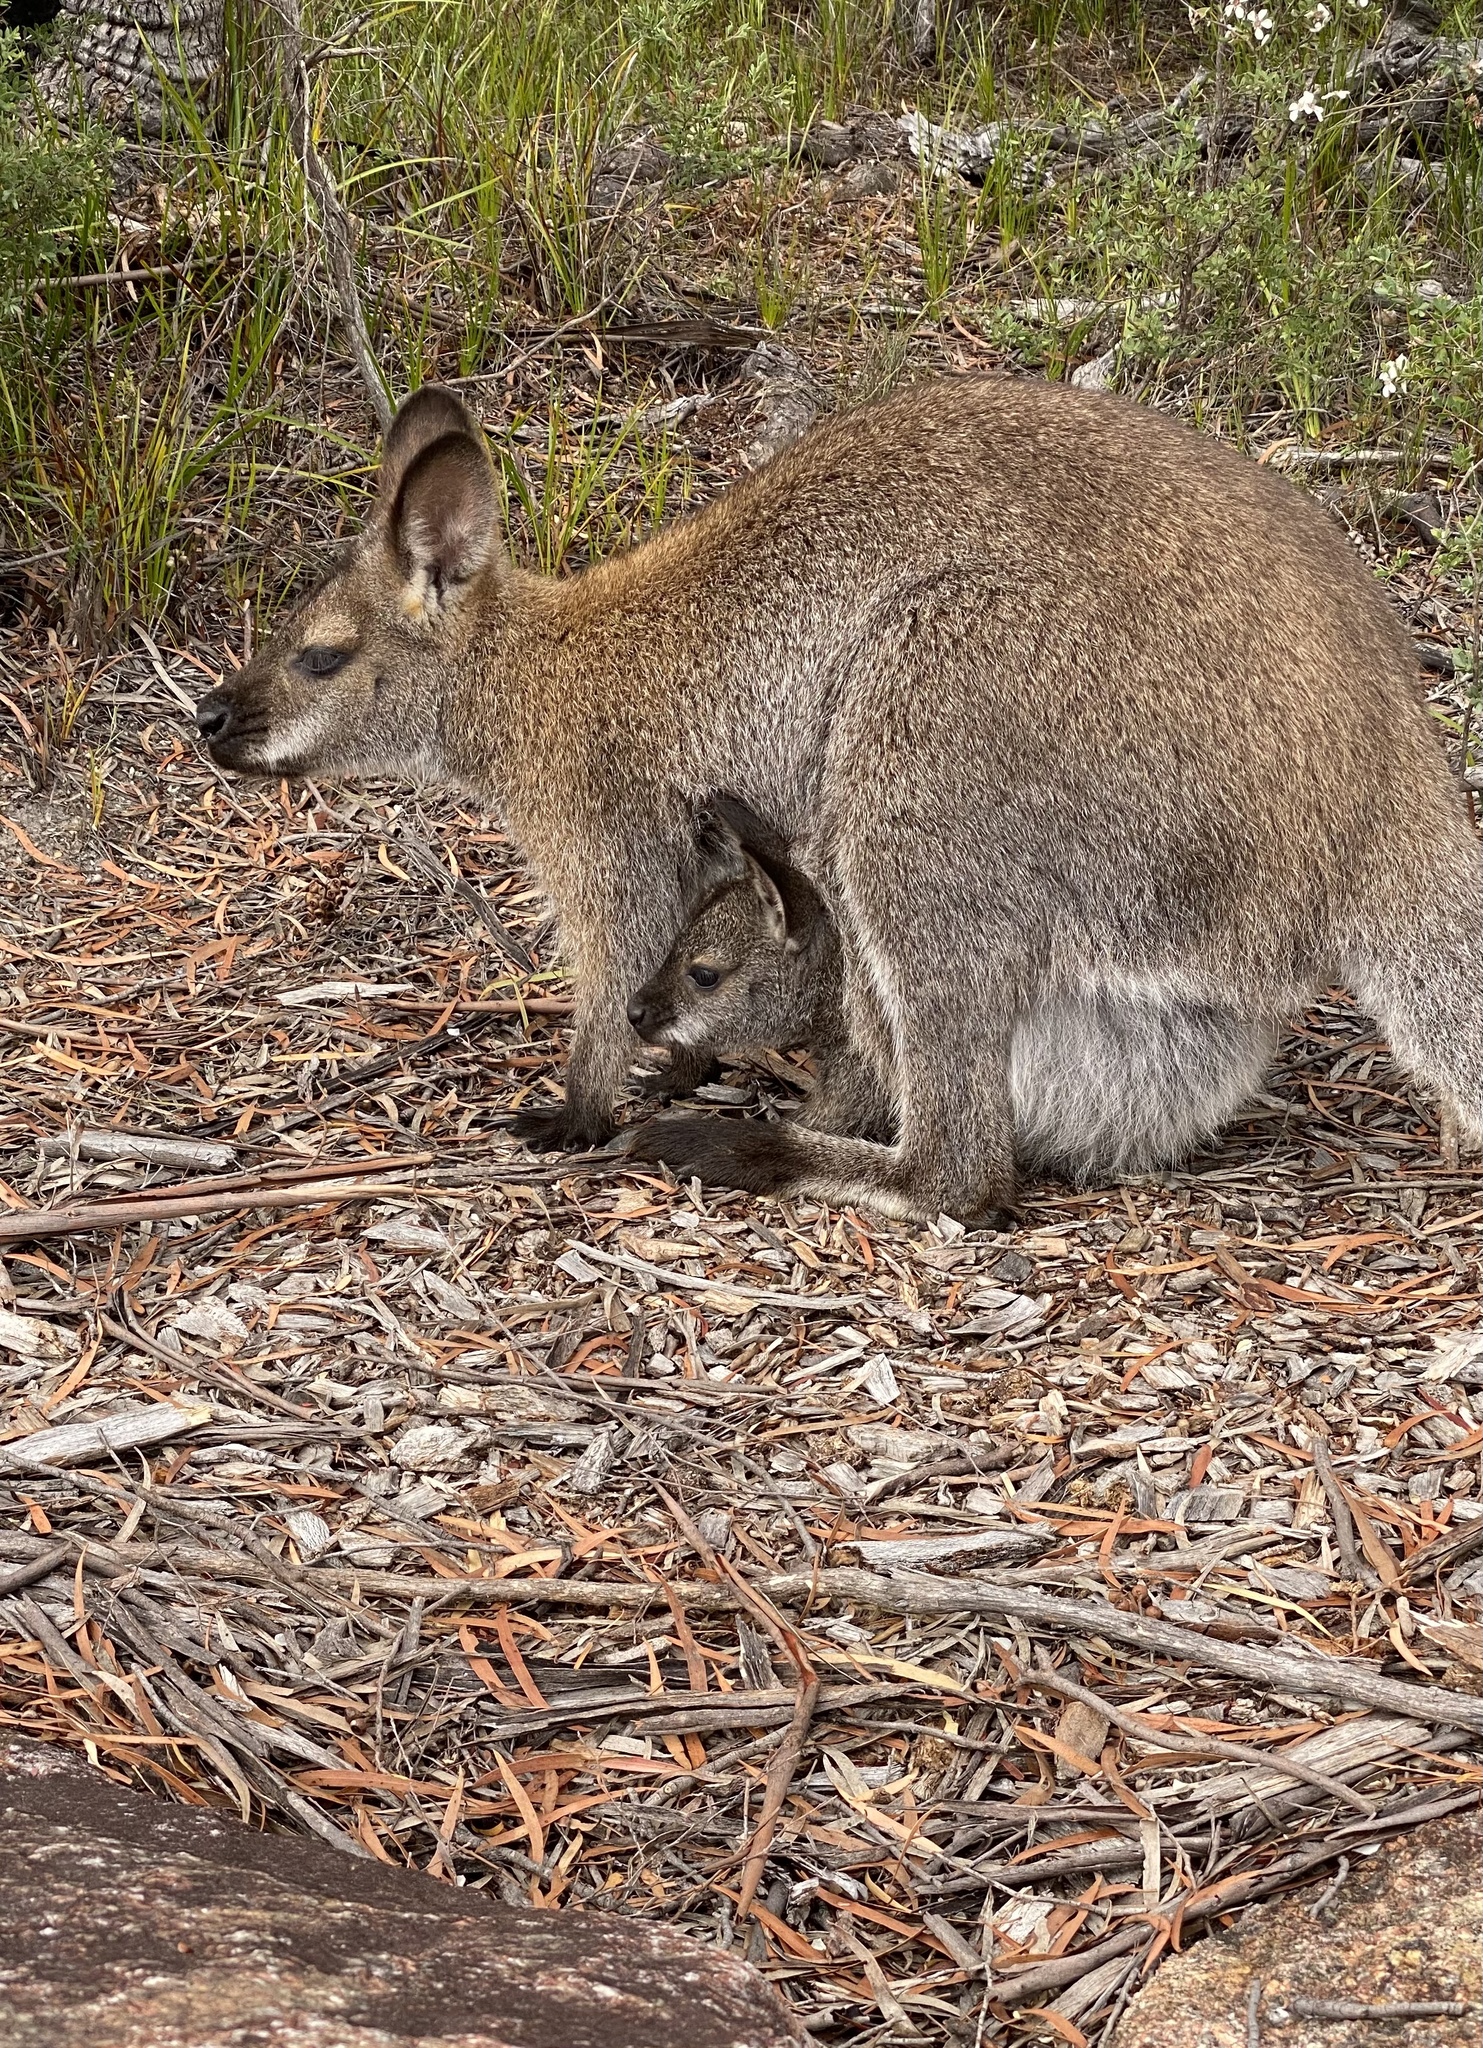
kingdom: Animalia
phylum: Chordata
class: Mammalia
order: Diprotodontia
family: Macropodidae
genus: Notamacropus
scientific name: Notamacropus rufogriseus
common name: Red-necked wallaby
